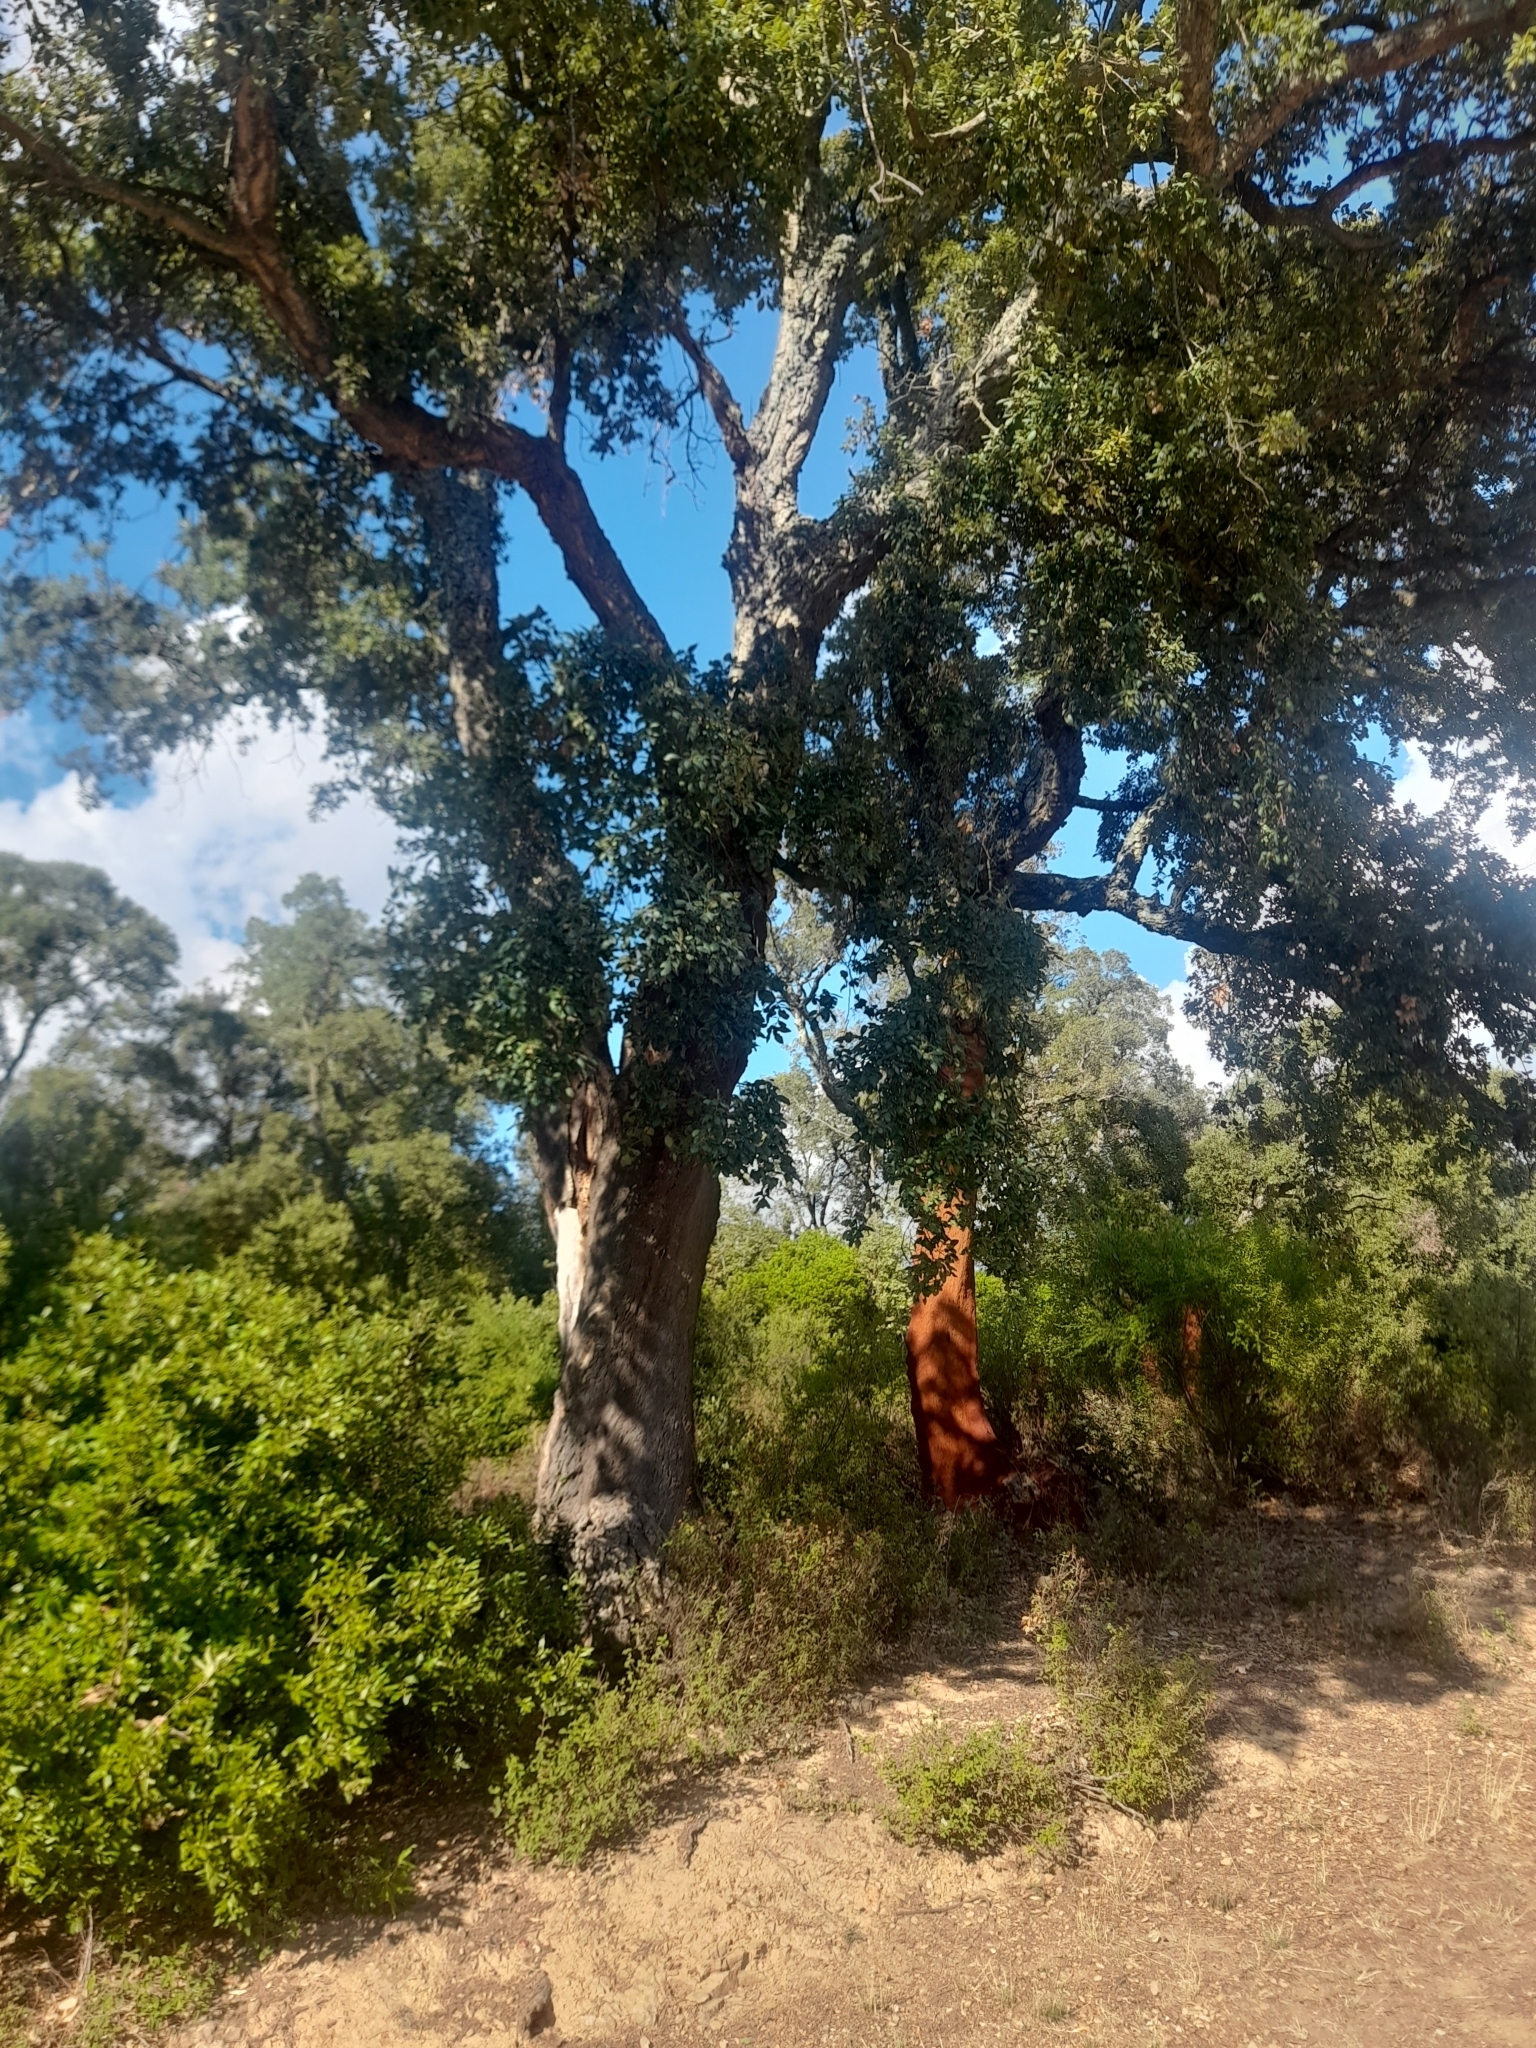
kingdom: Plantae
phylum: Tracheophyta
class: Magnoliopsida
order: Fagales
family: Fagaceae
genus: Quercus
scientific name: Quercus suber
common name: Cork oak
